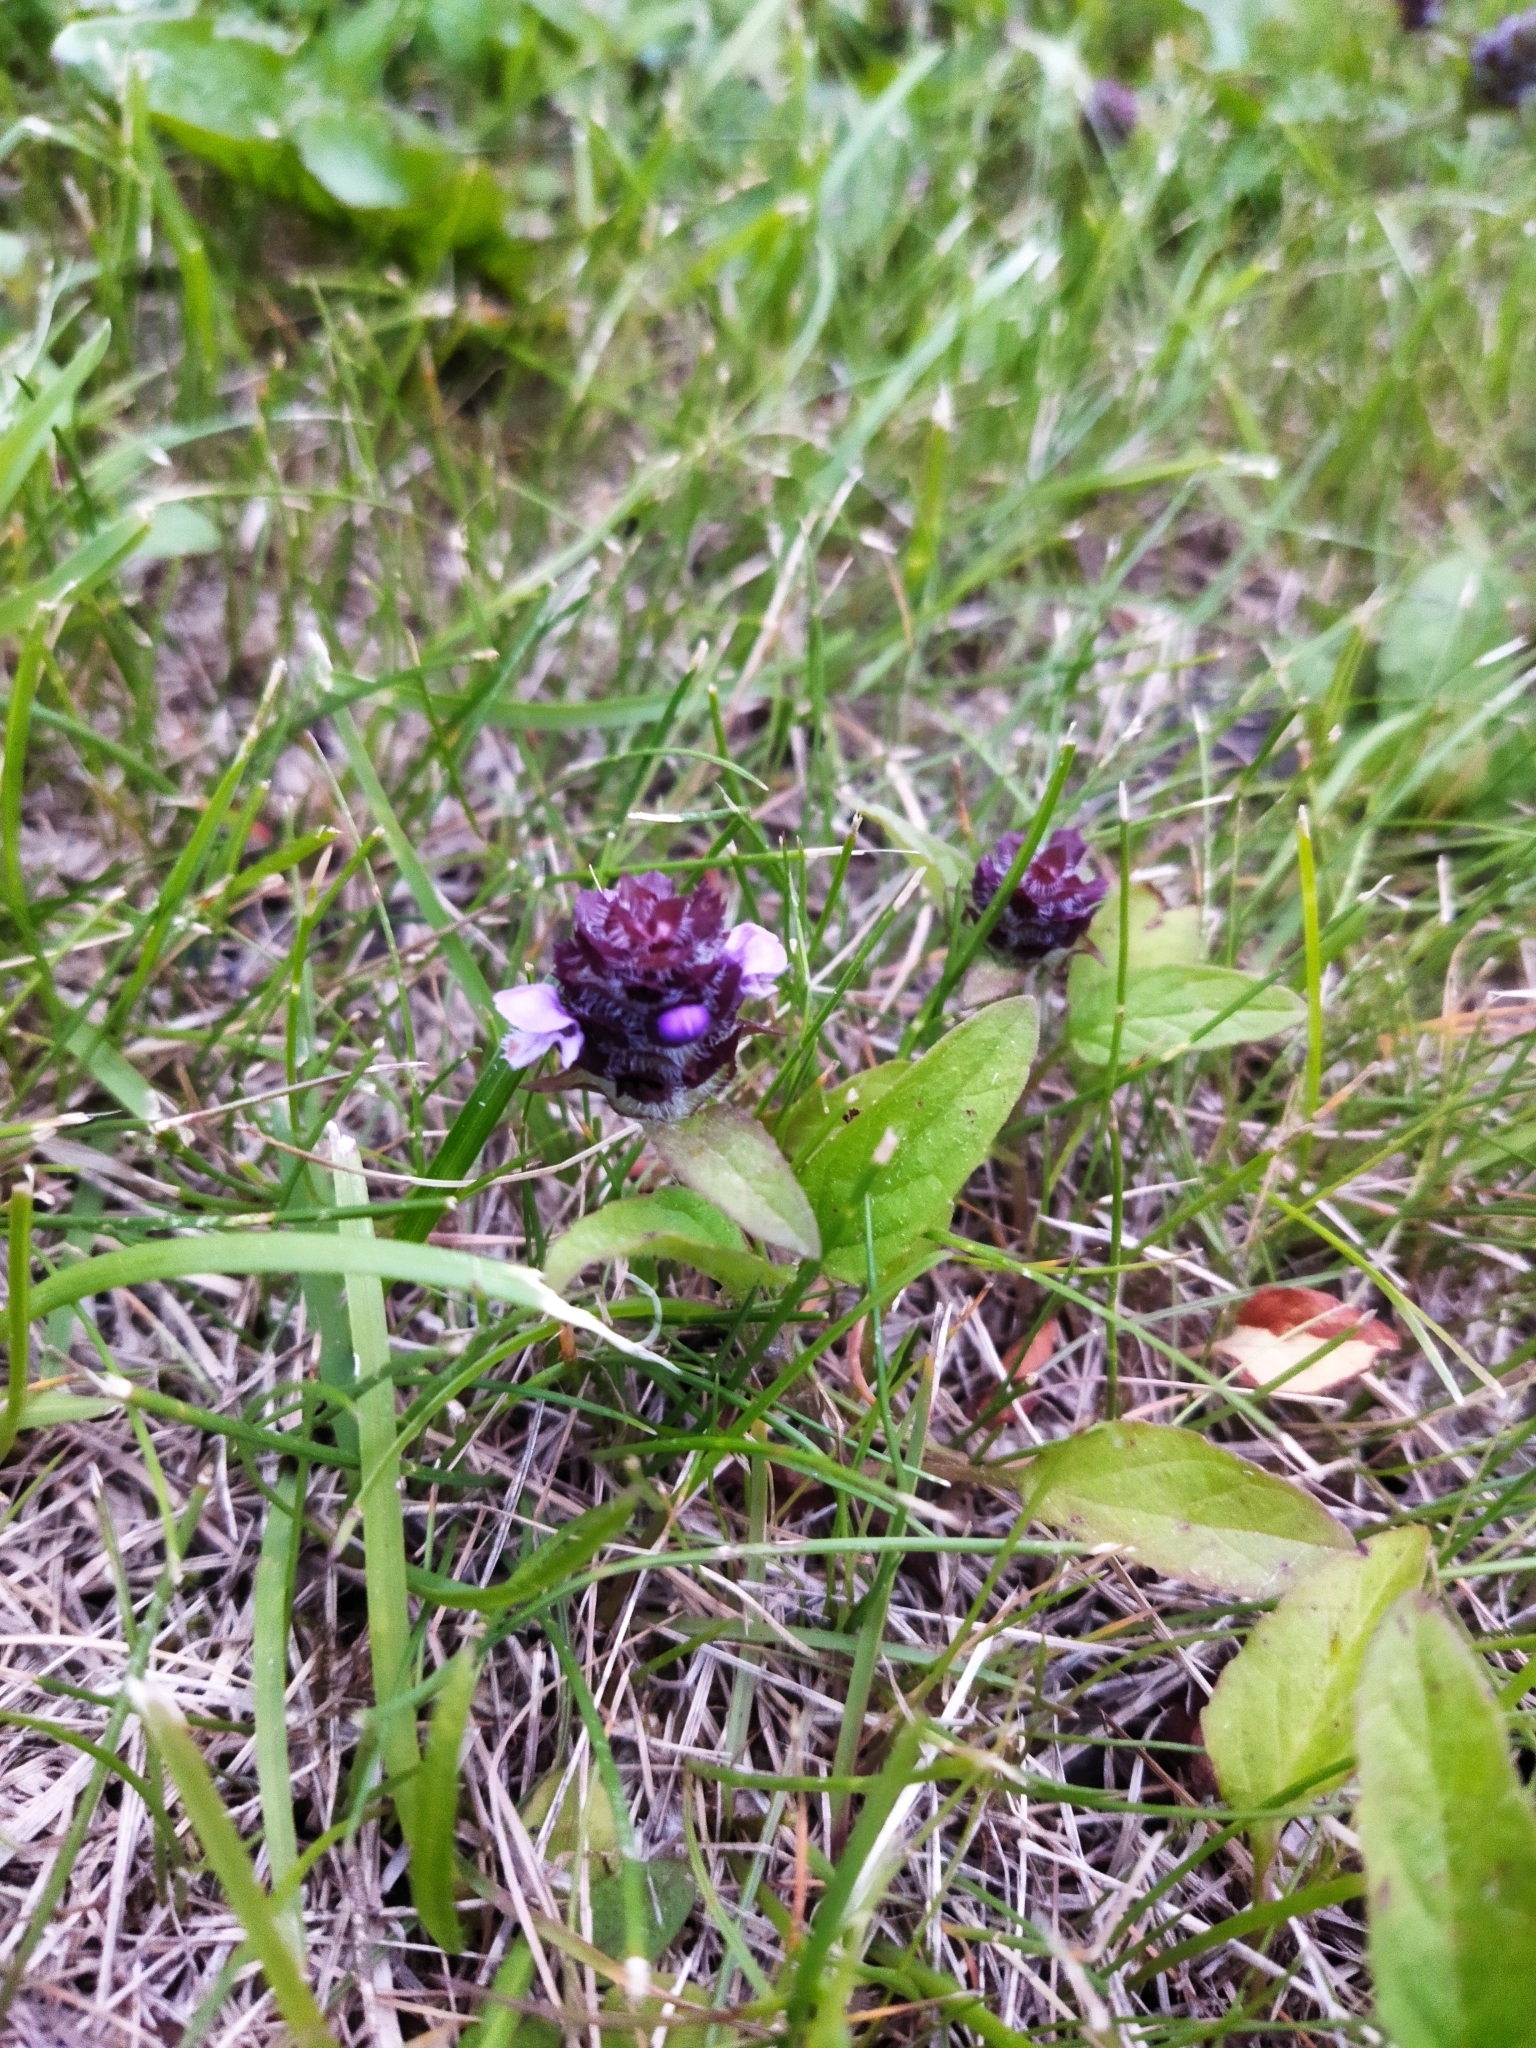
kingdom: Plantae
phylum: Tracheophyta
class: Magnoliopsida
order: Lamiales
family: Lamiaceae
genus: Prunella
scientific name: Prunella vulgaris
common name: Heal-all
